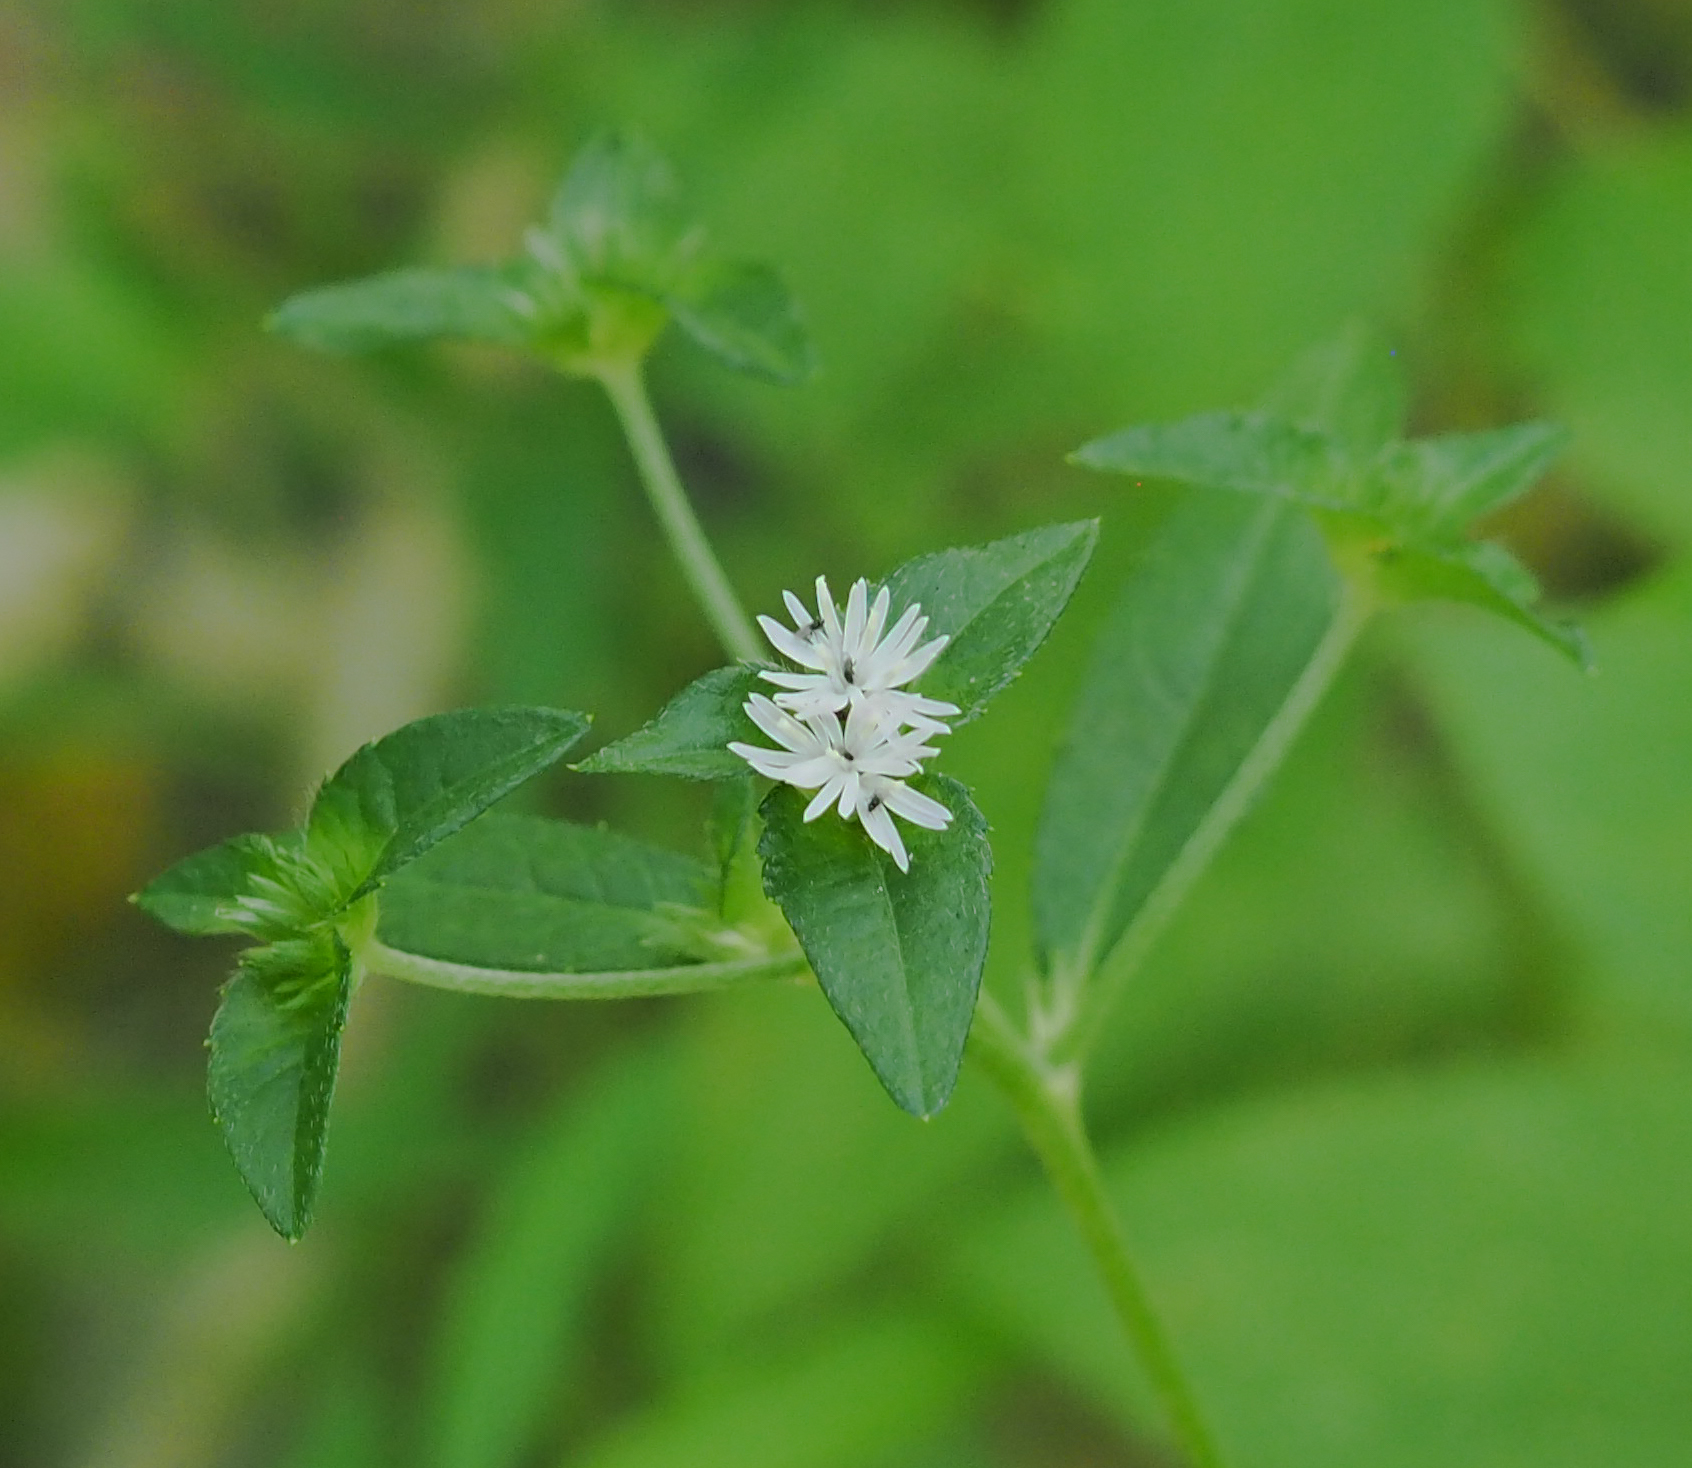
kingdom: Plantae
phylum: Tracheophyta
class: Magnoliopsida
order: Asterales
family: Asteraceae
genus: Elephantopus
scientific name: Elephantopus carolinianus
